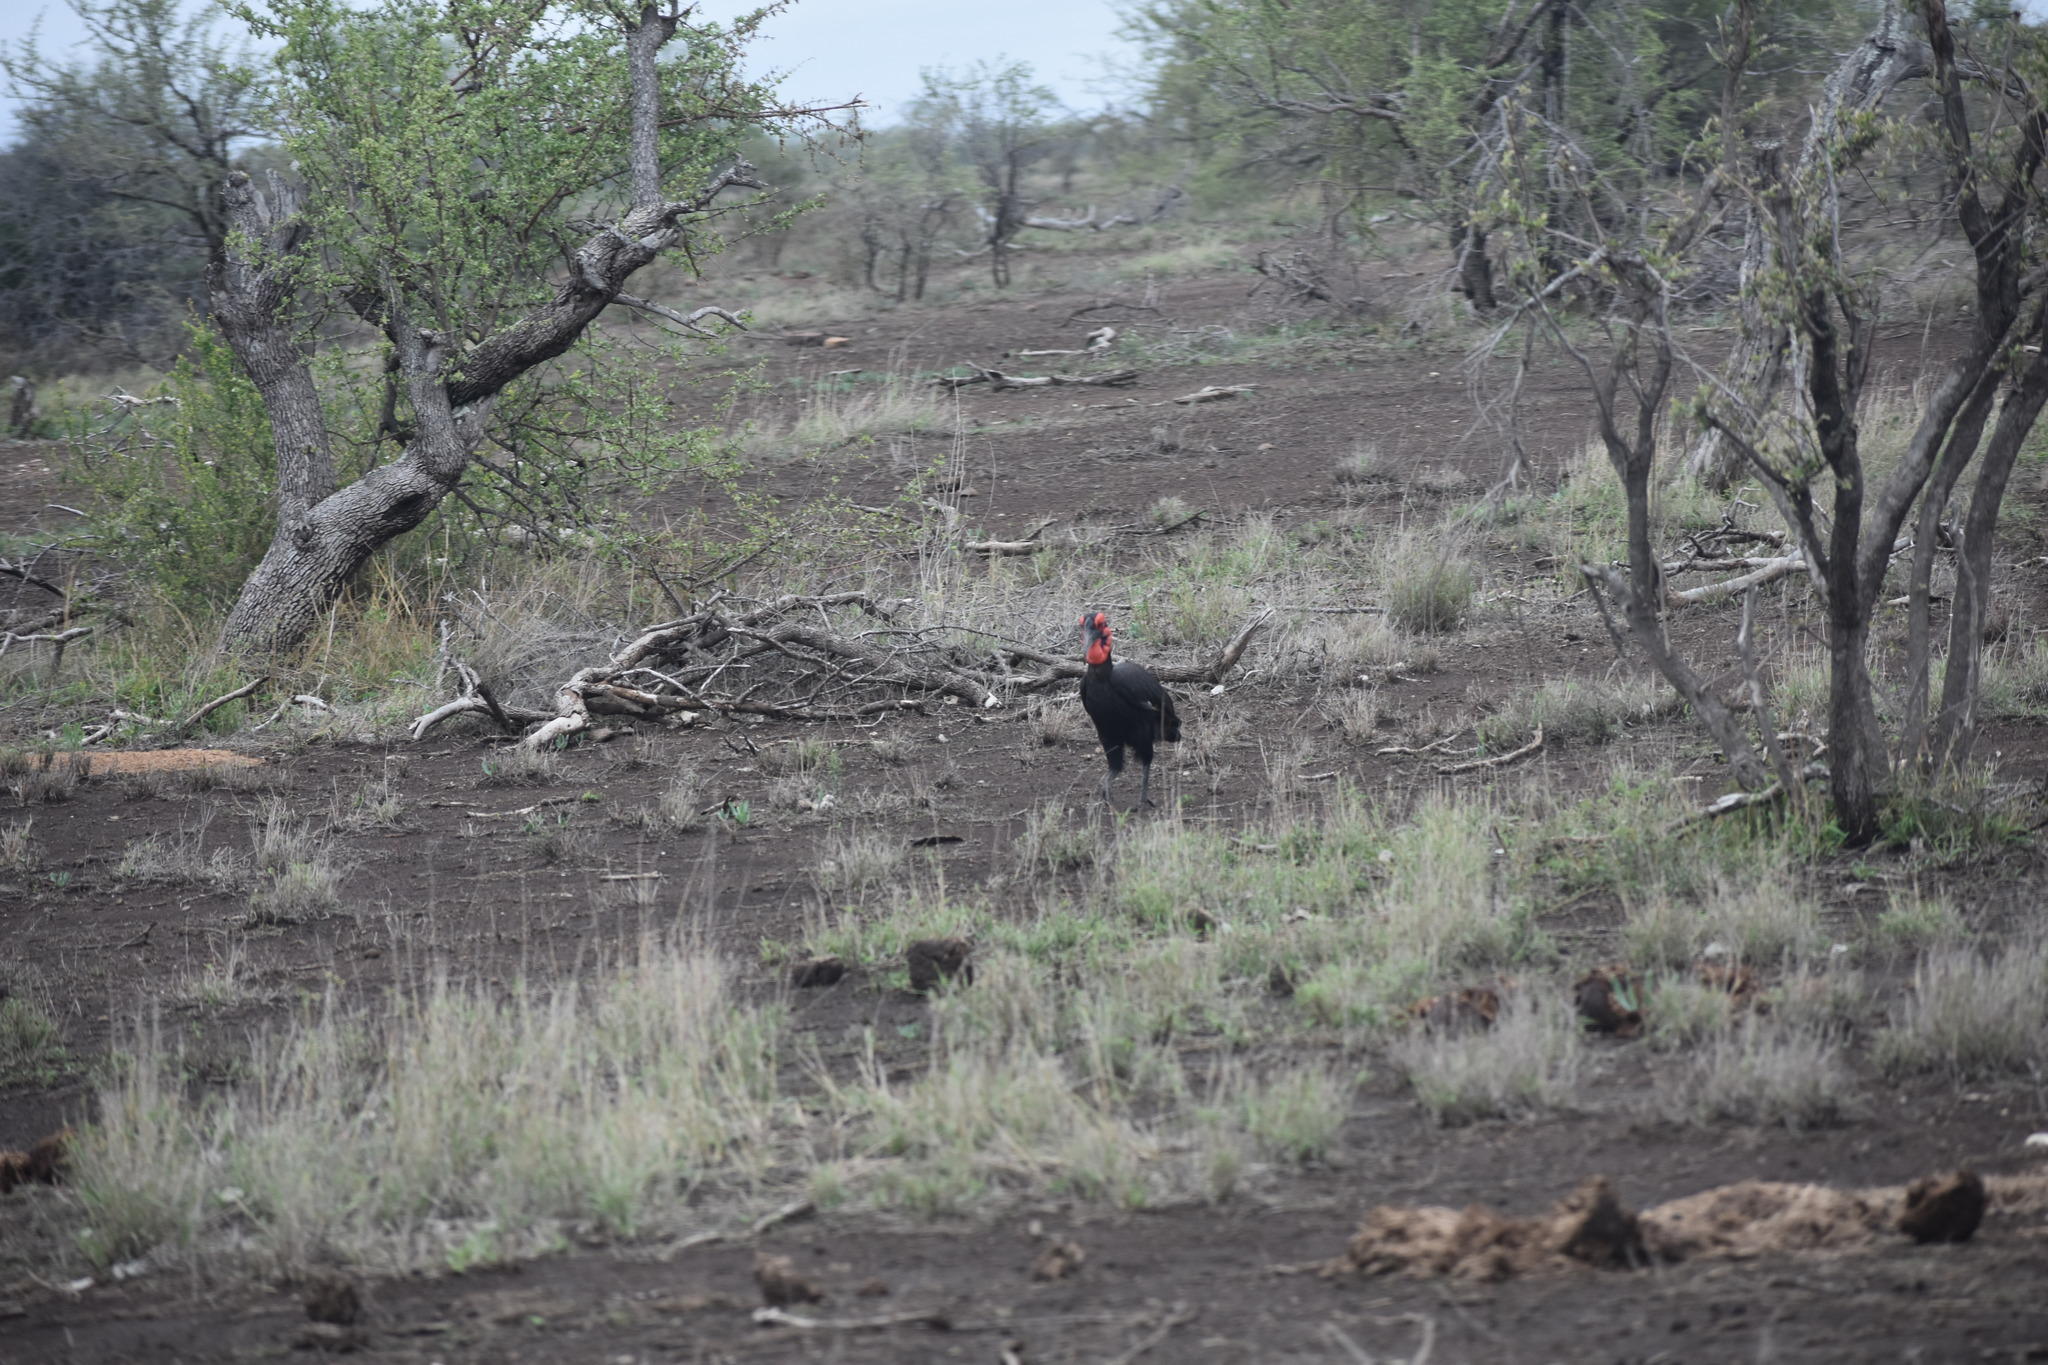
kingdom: Animalia
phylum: Chordata
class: Aves
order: Bucerotiformes
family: Bucorvidae
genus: Bucorvus
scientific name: Bucorvus leadbeateri
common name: Southern ground-hornbill
